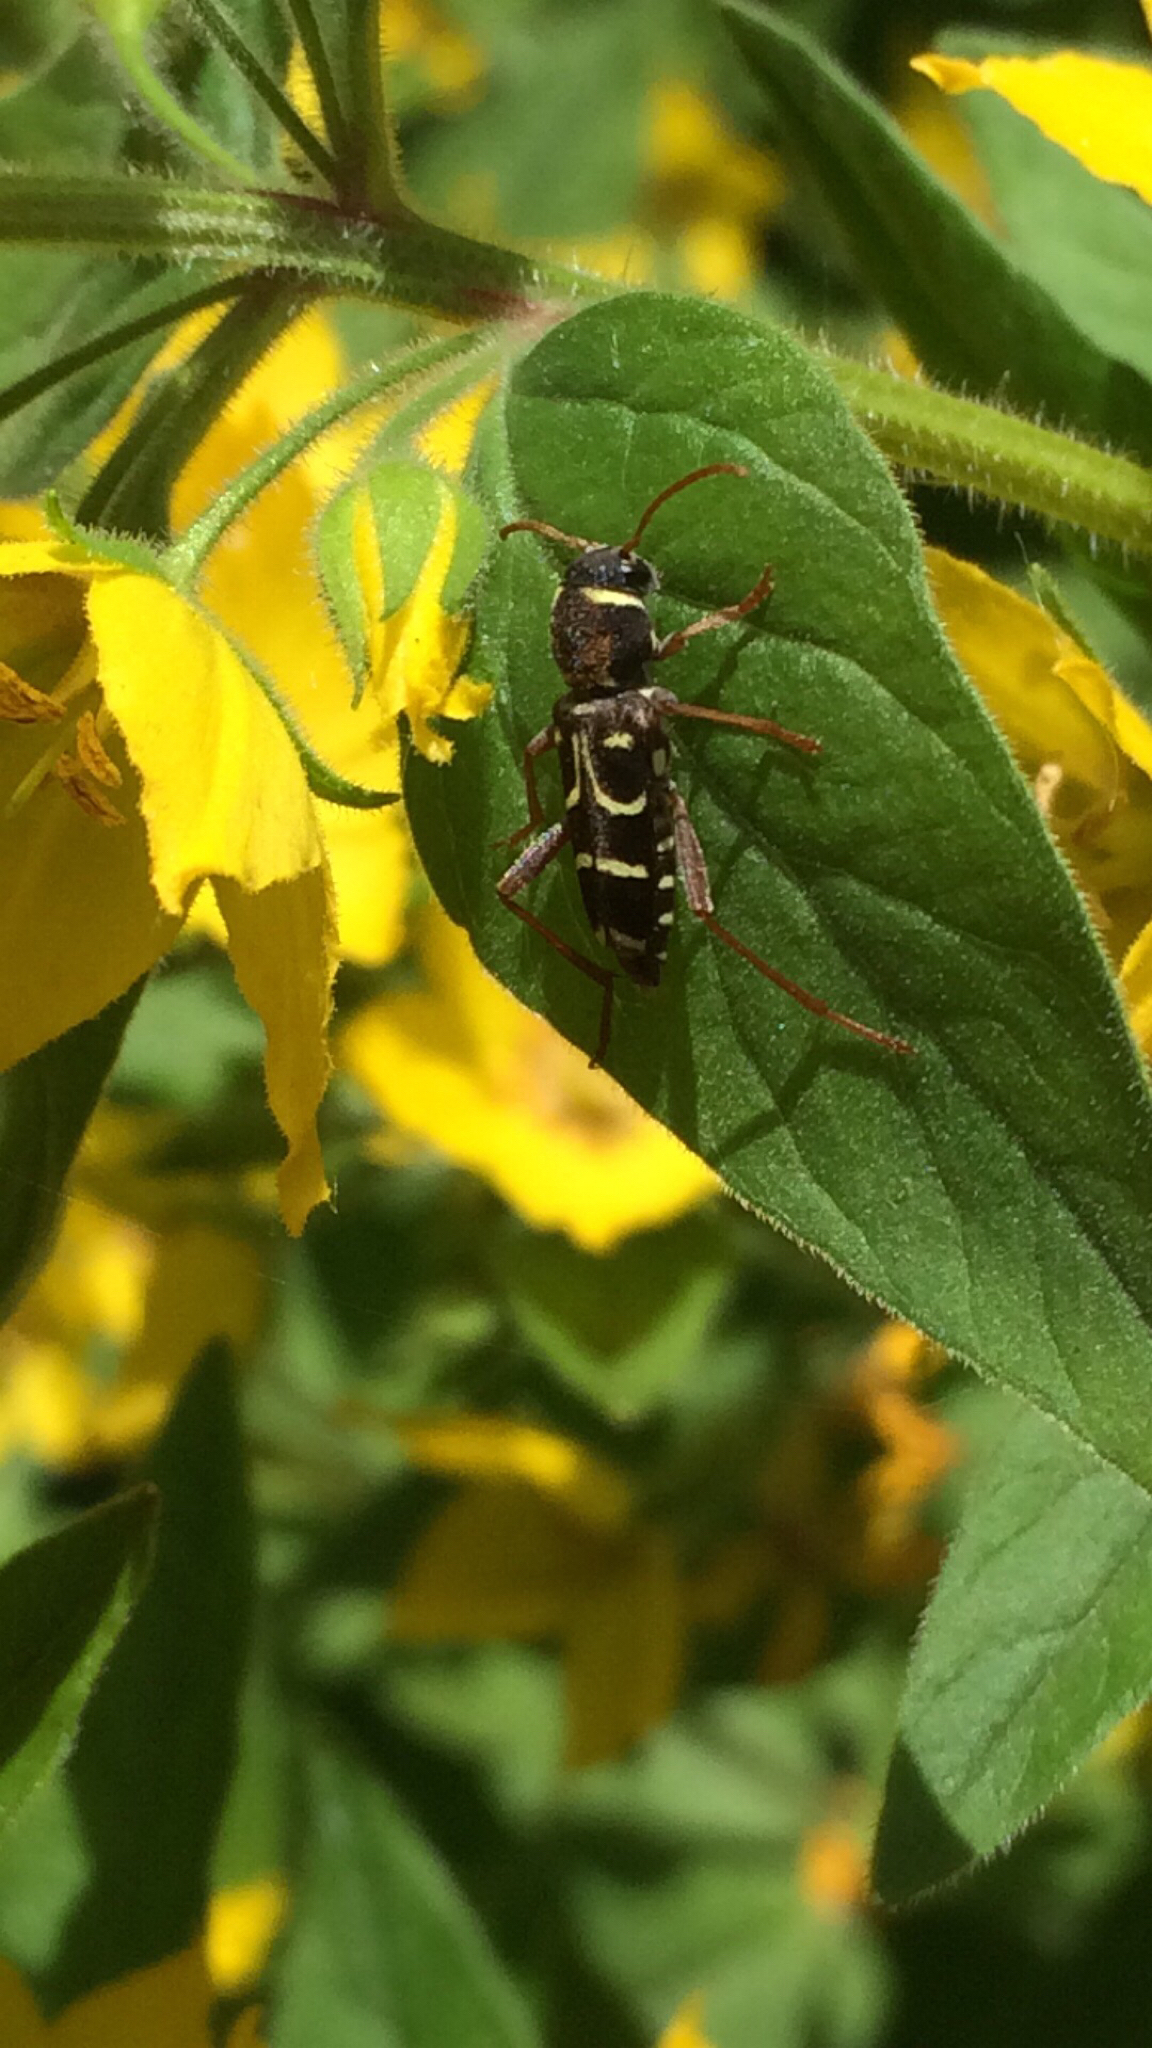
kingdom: Animalia
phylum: Arthropoda
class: Insecta
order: Coleoptera
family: Cerambycidae
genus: Xylotrechus
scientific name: Xylotrechus arvicola
